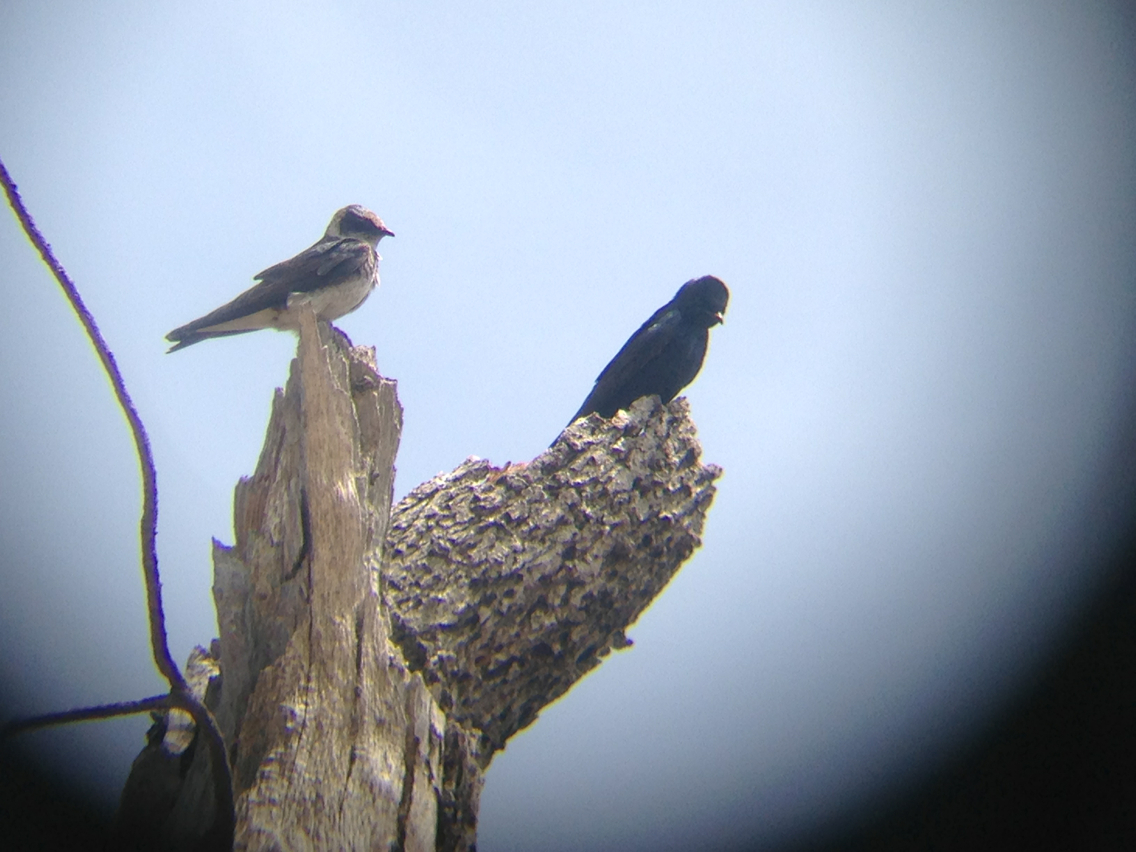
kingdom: Animalia
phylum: Chordata
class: Aves
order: Passeriformes
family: Hirundinidae
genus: Progne
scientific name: Progne subis
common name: Purple martin
